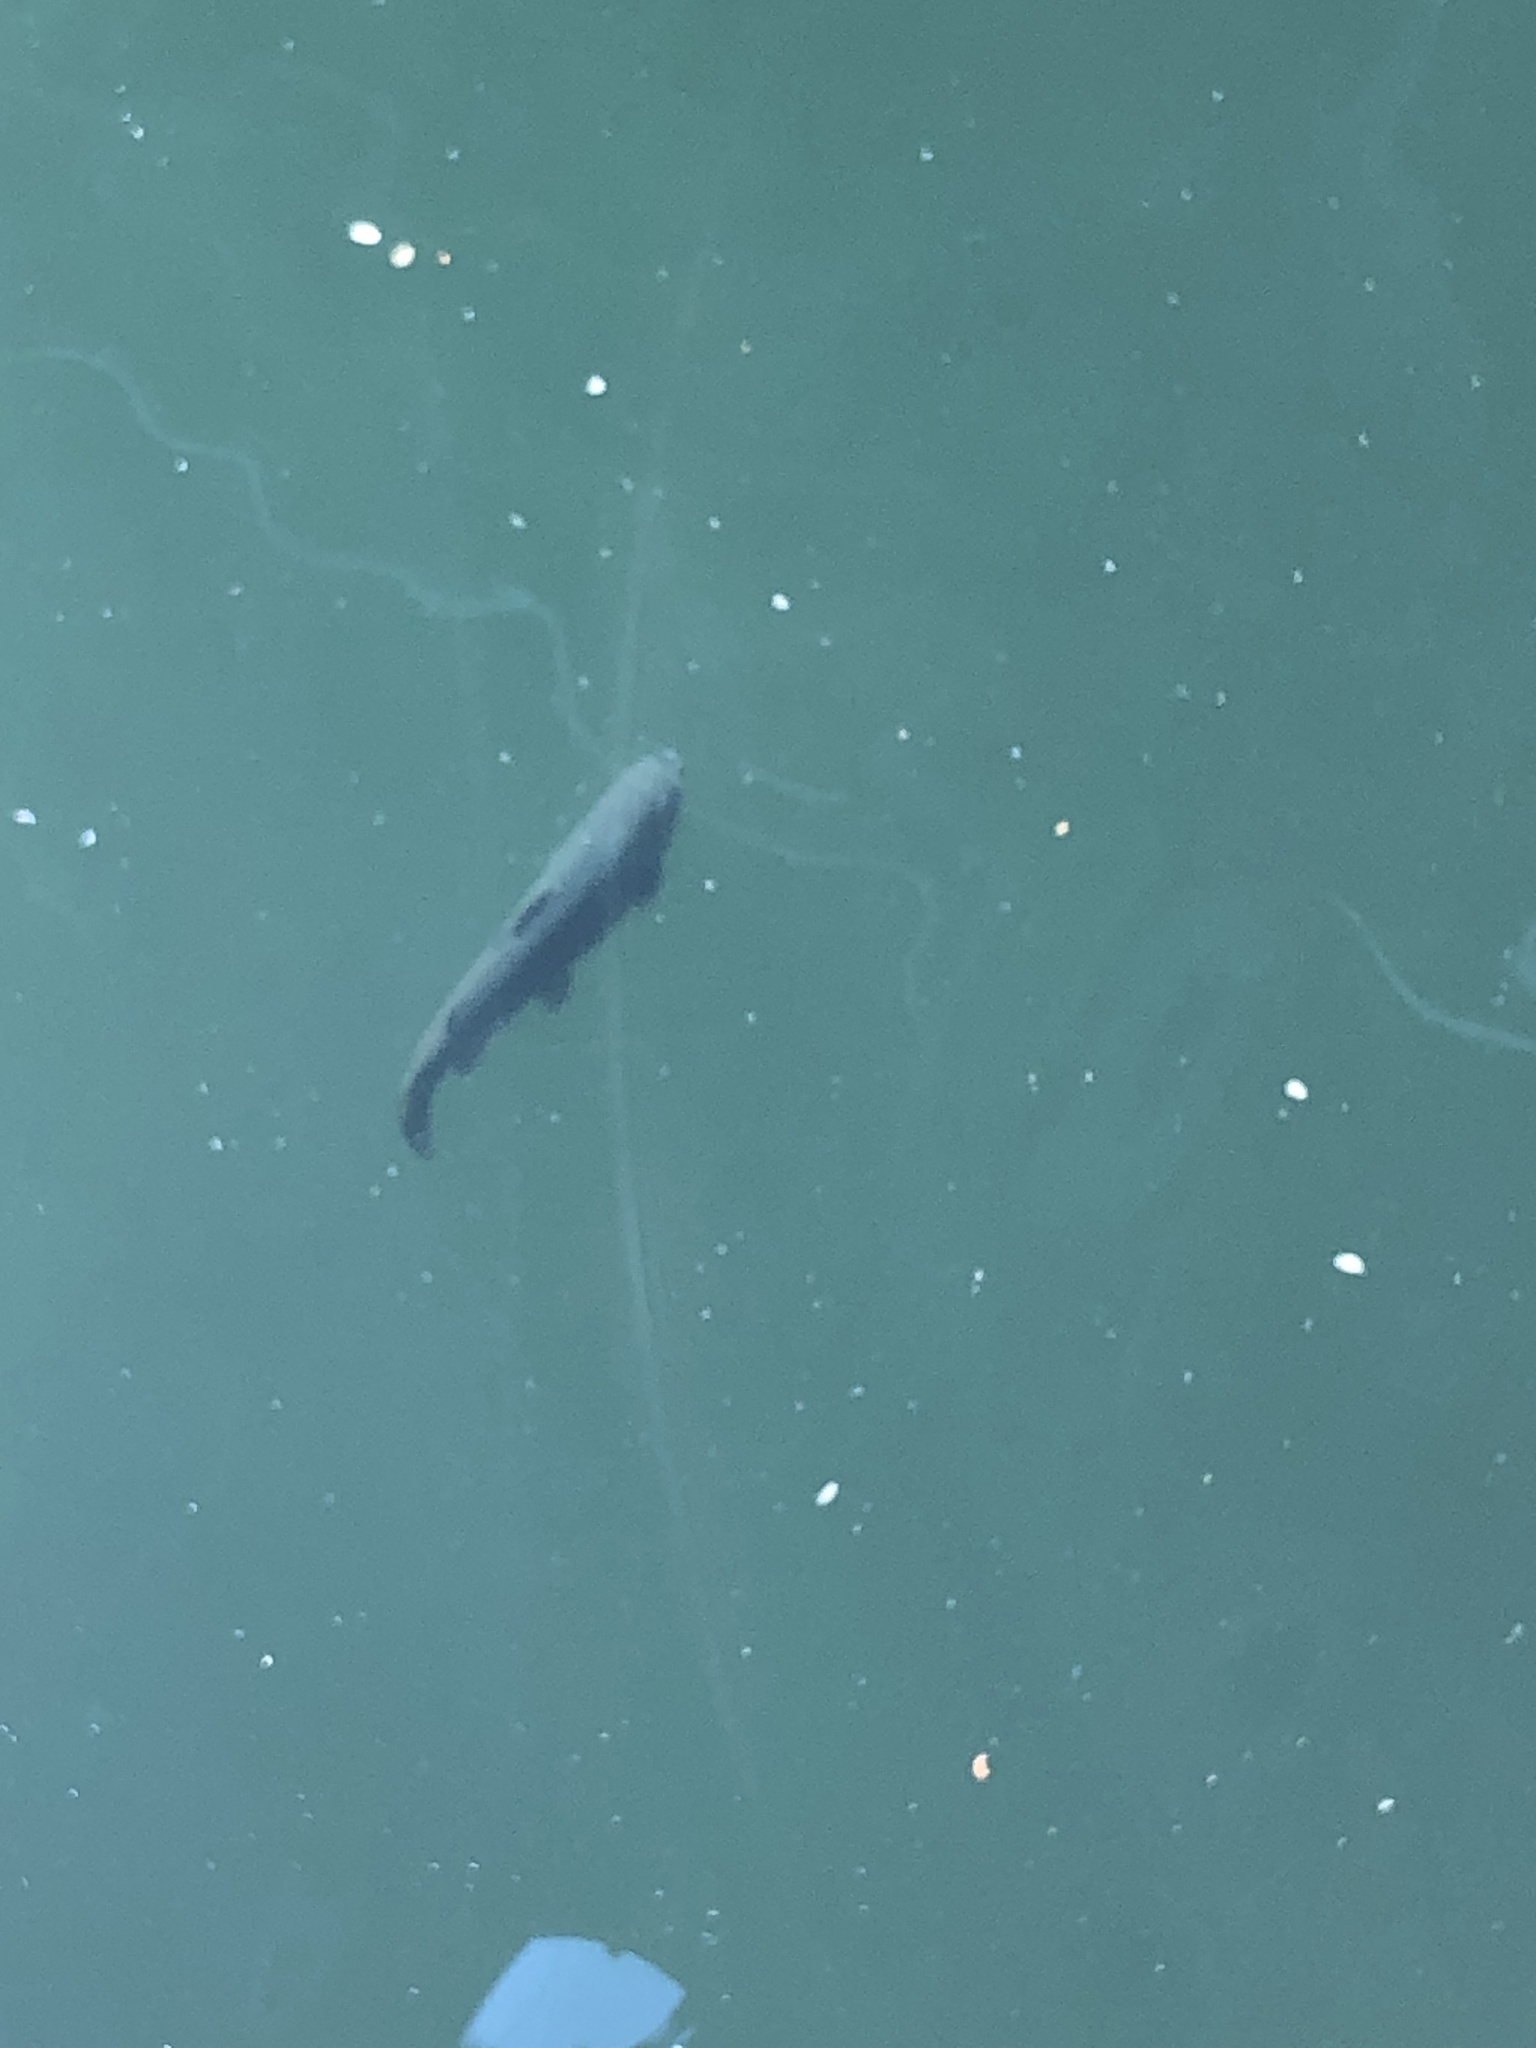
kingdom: Animalia
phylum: Chordata
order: Salmoniformes
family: Salmonidae
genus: Oncorhynchus
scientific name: Oncorhynchus mykiss
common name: Rainbow trout
